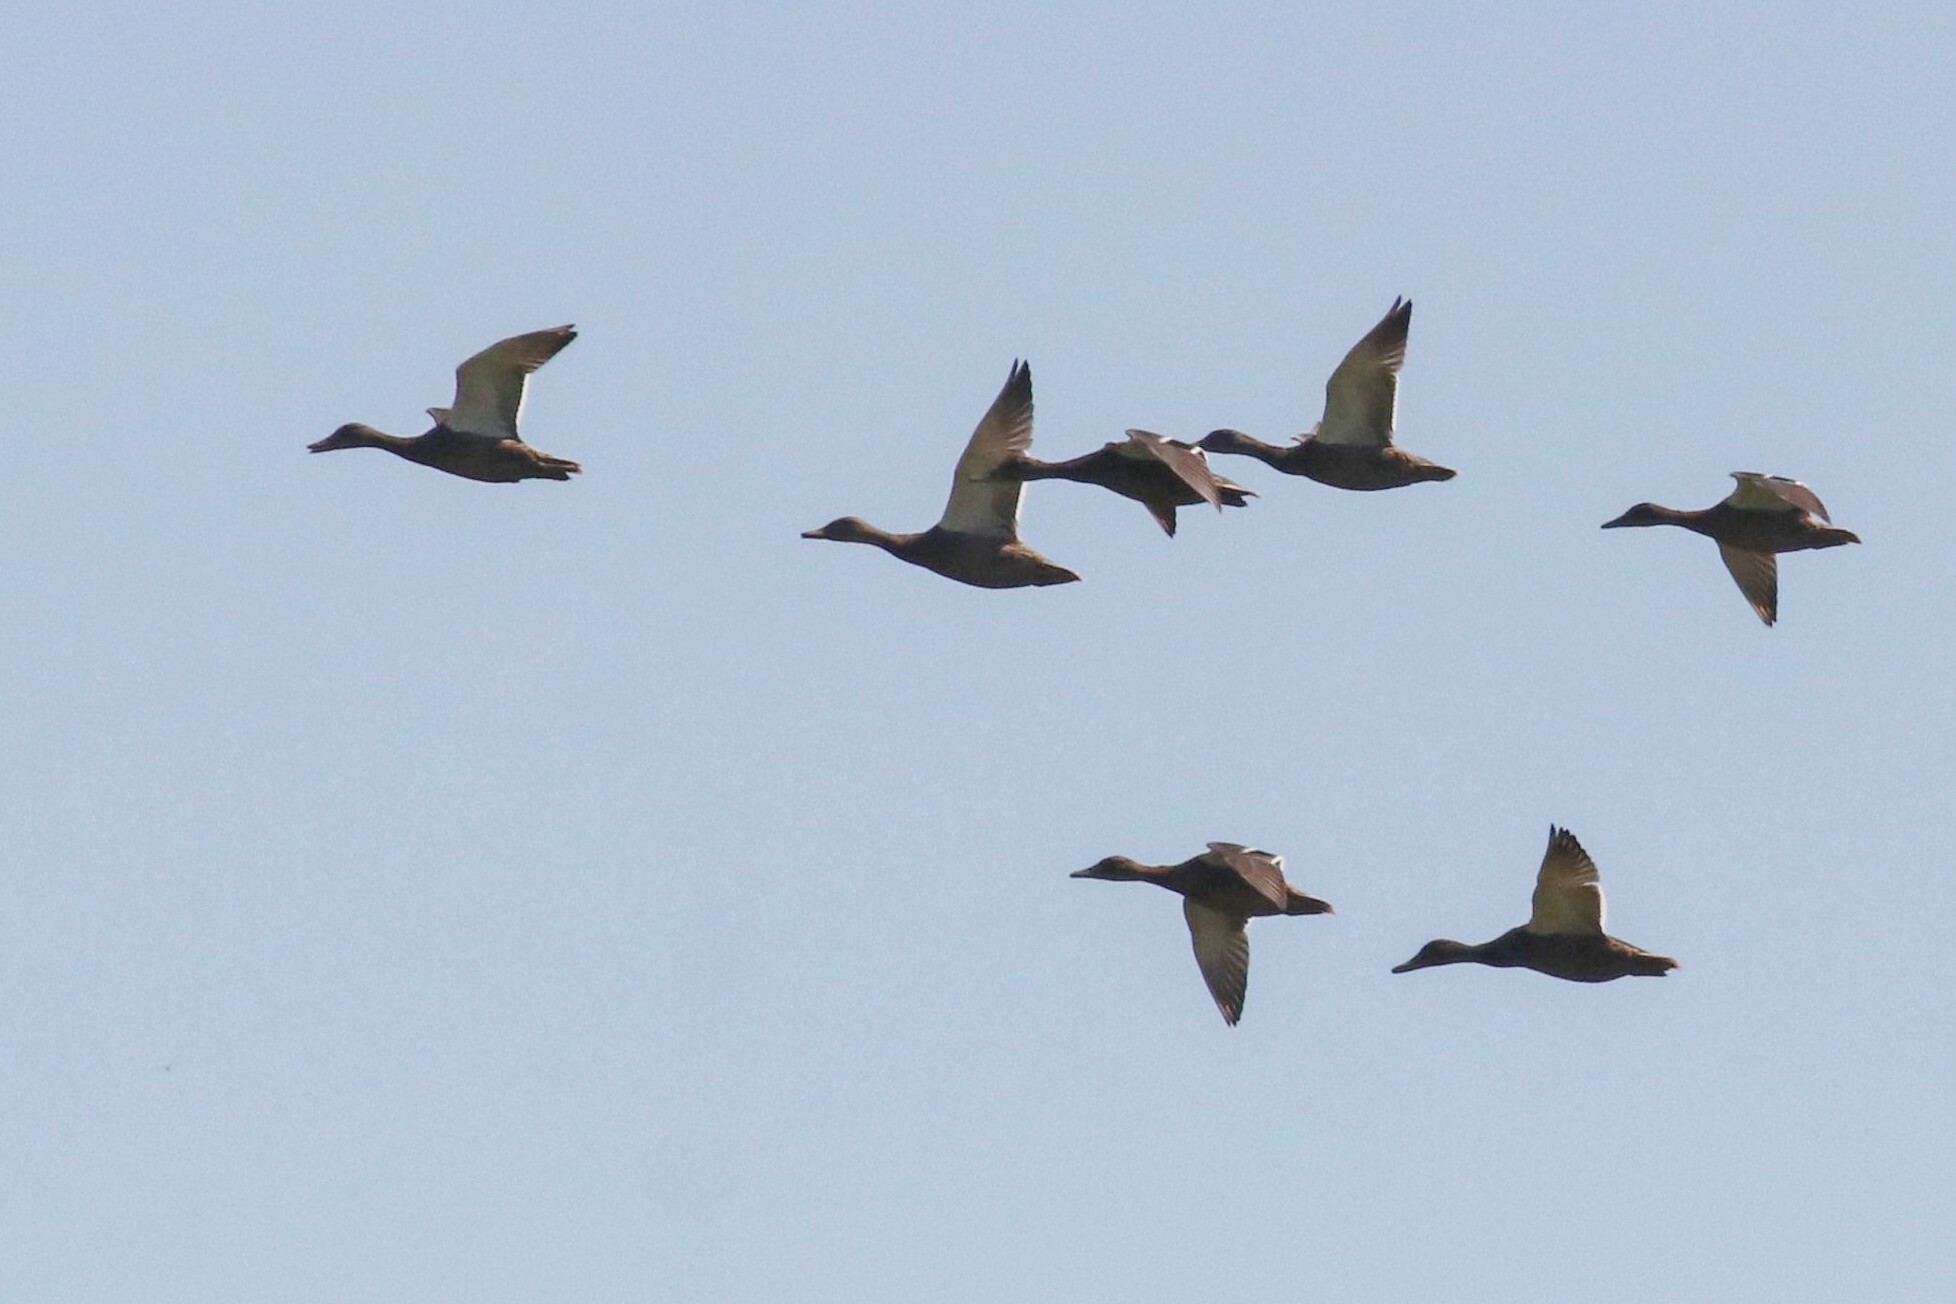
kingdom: Animalia
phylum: Chordata
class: Aves
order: Anseriformes
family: Anatidae
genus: Anas
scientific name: Anas platyrhynchos
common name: Mallard
